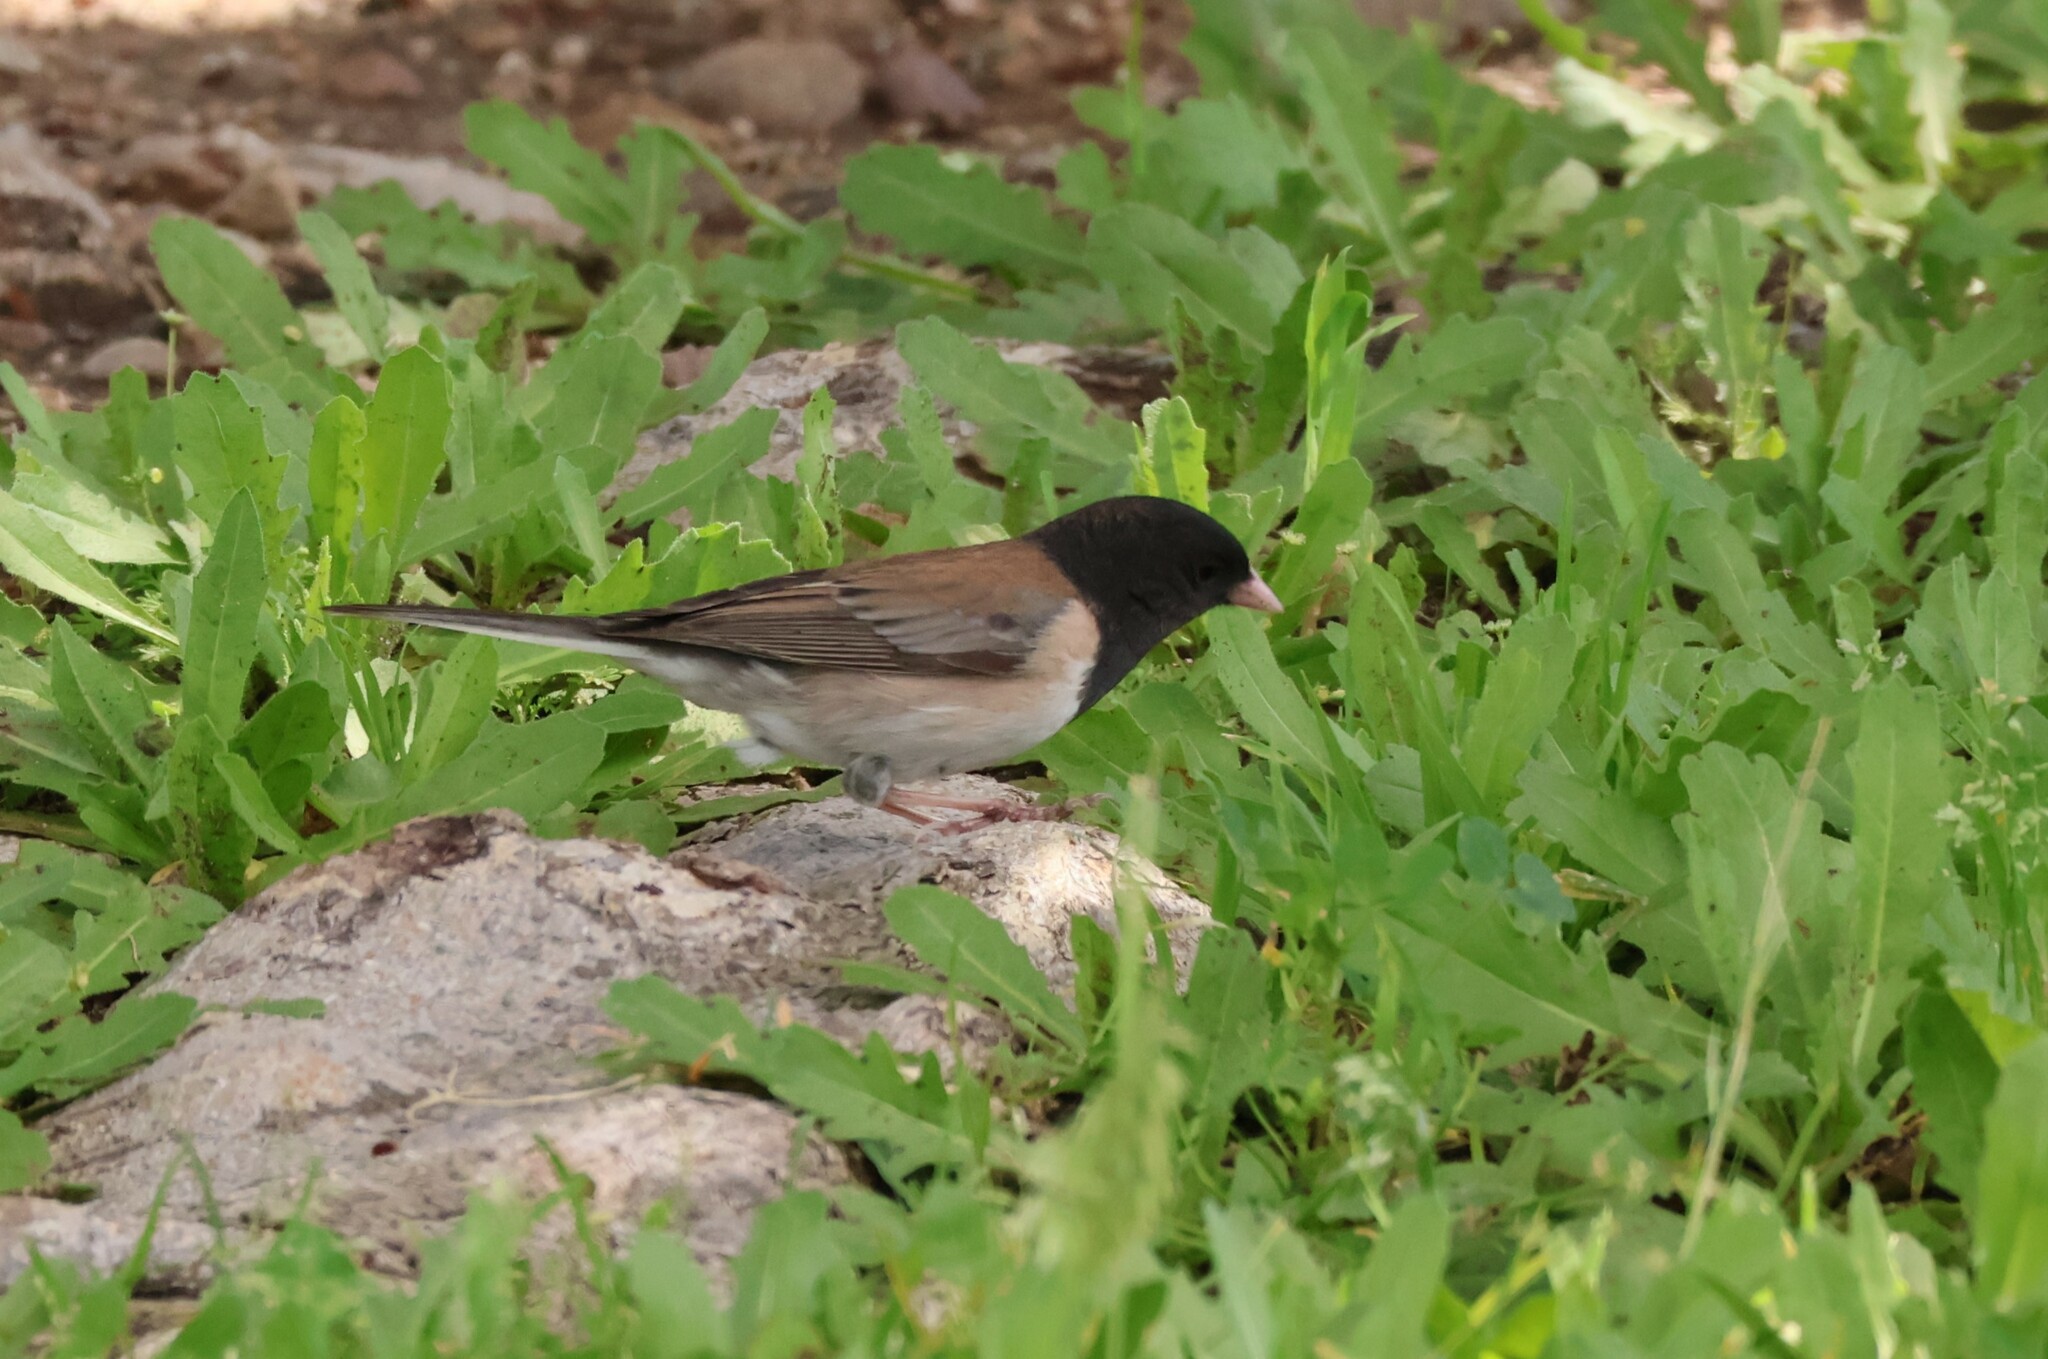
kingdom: Animalia
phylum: Chordata
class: Aves
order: Passeriformes
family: Passerellidae
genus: Junco
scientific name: Junco hyemalis
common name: Dark-eyed junco
